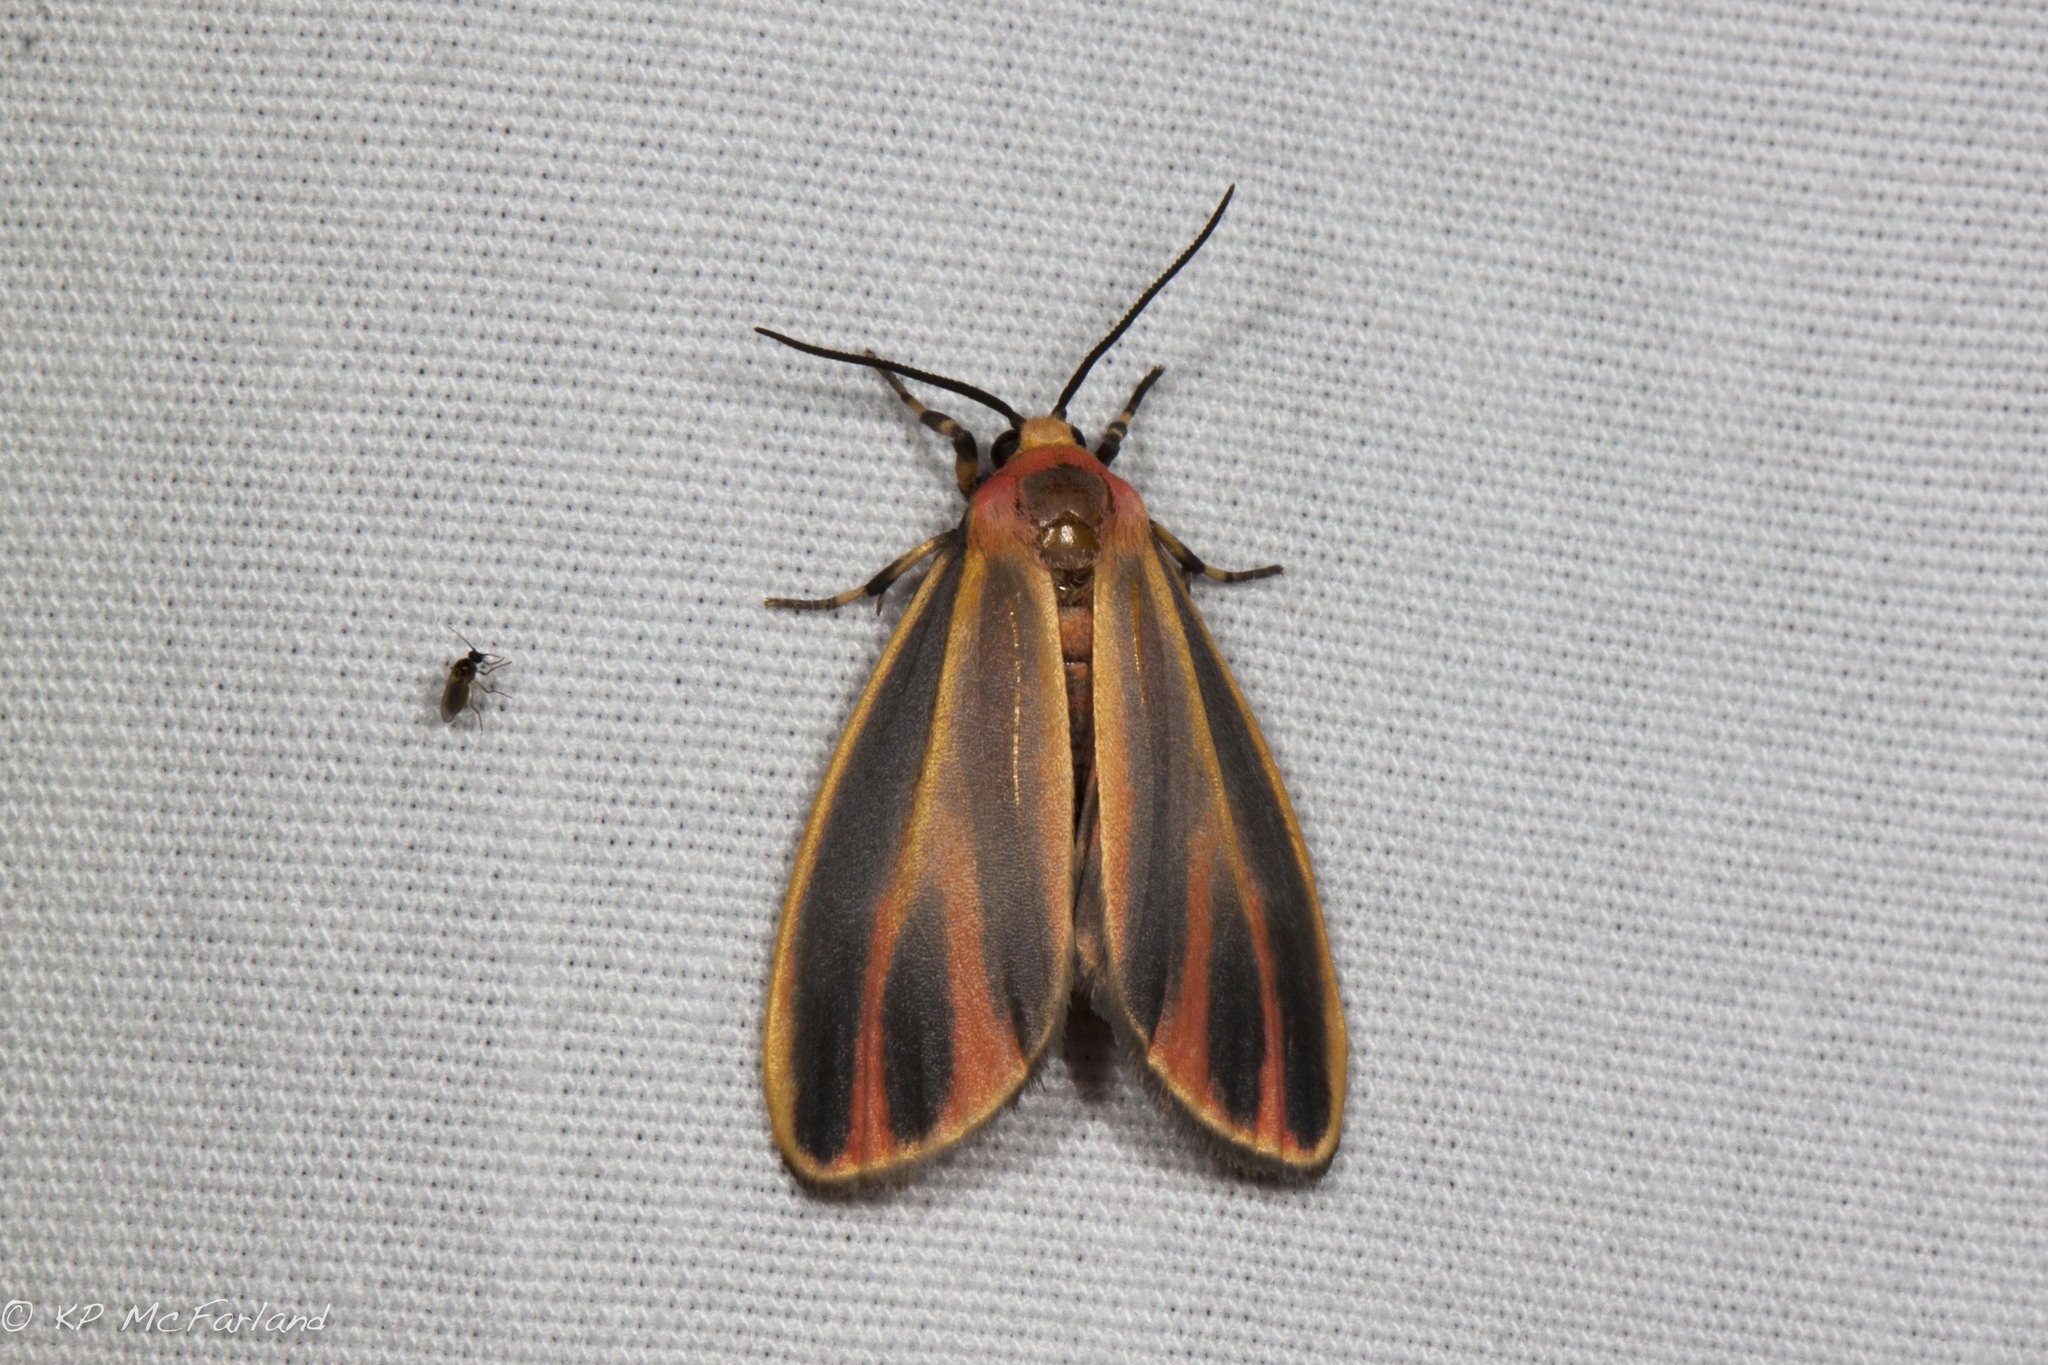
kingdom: Animalia
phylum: Arthropoda
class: Insecta
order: Lepidoptera
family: Erebidae
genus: Hypoprepia
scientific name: Hypoprepia fucosa
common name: Painted lichen moth
